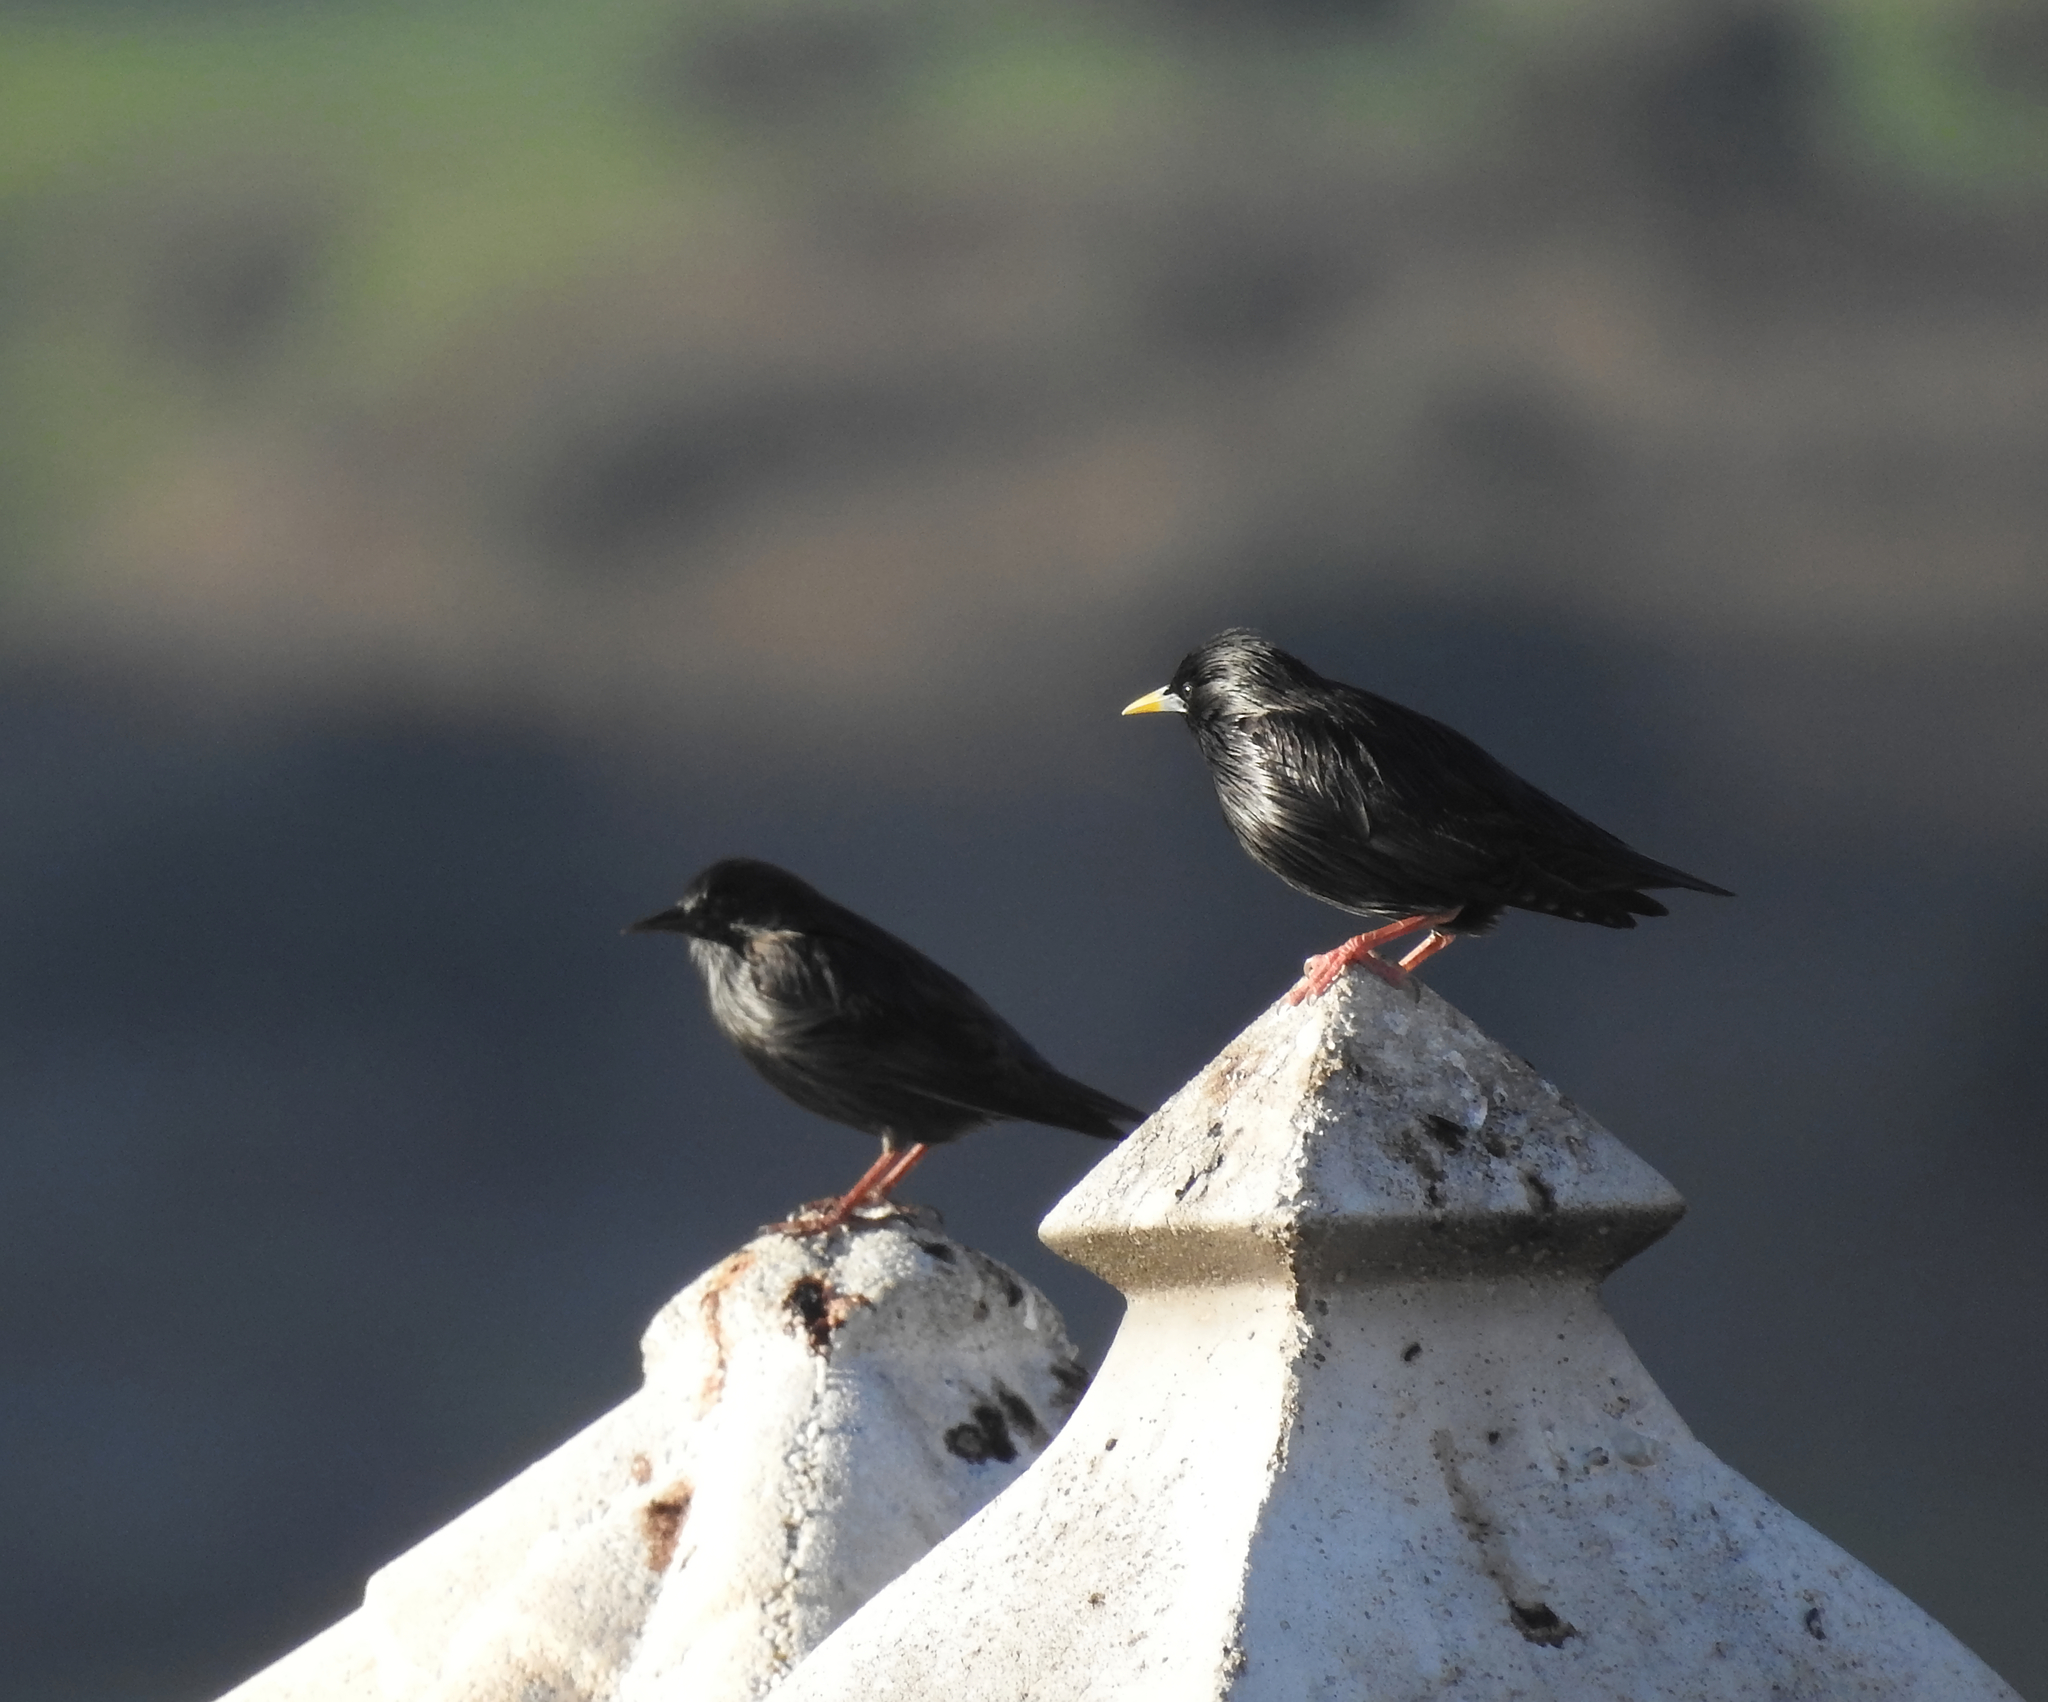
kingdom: Animalia
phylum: Chordata
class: Aves
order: Passeriformes
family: Sturnidae
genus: Sturnus
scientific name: Sturnus unicolor
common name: Spotless starling
